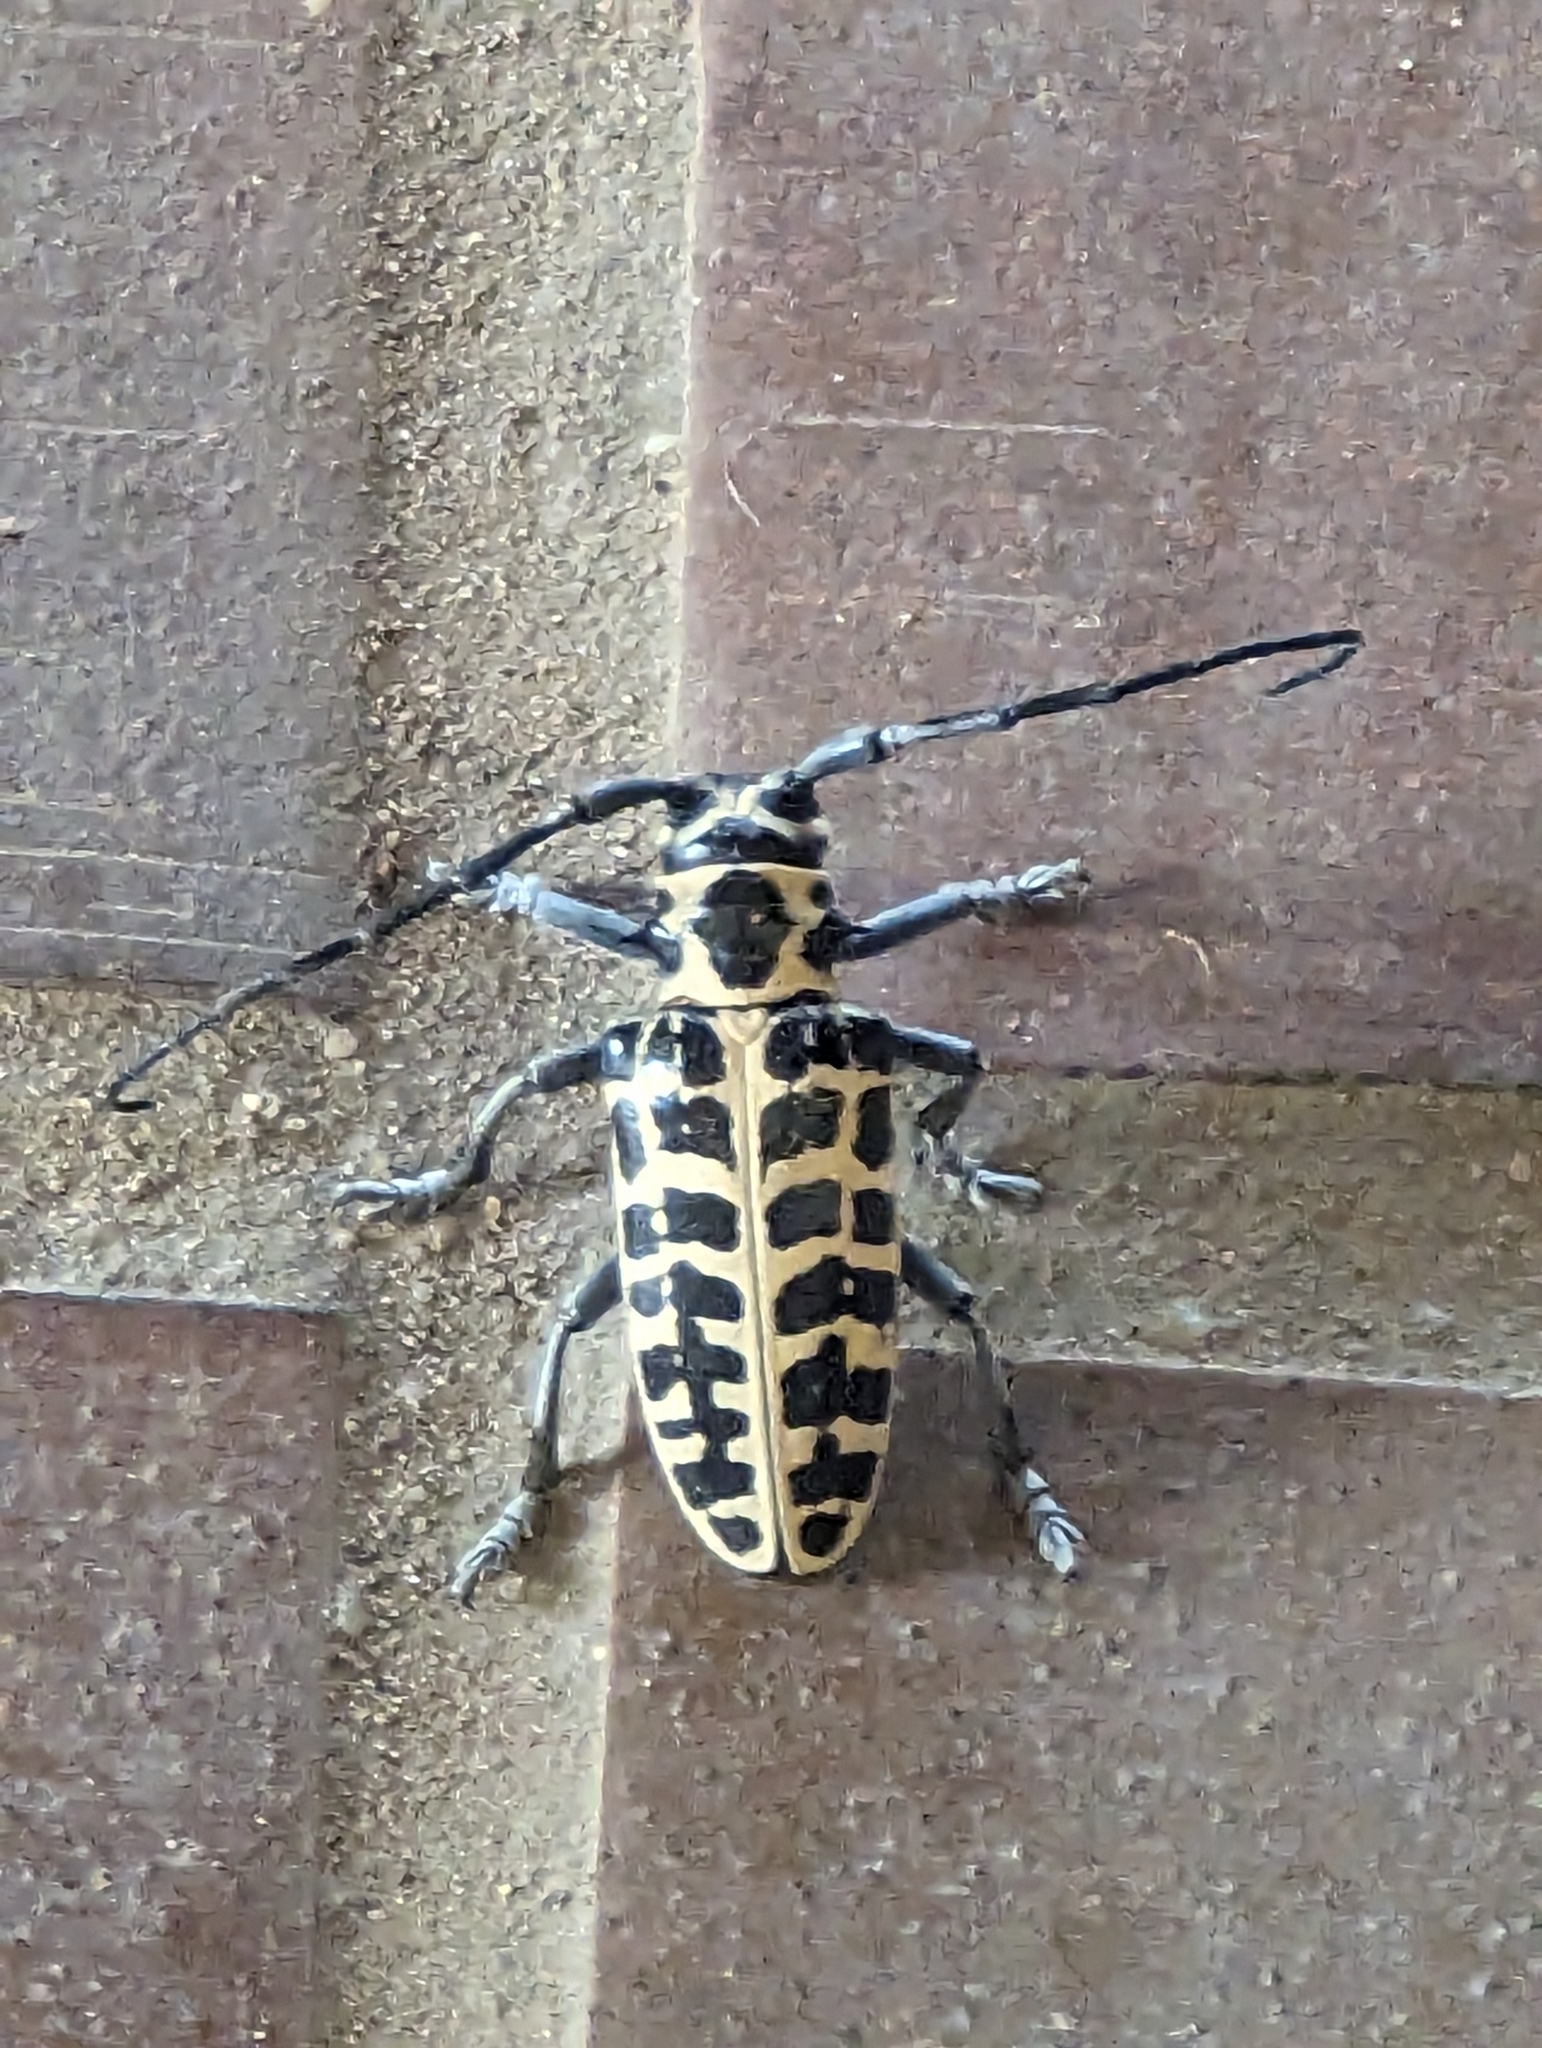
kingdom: Animalia
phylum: Arthropoda
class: Insecta
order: Coleoptera
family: Cerambycidae
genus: Plectrodera
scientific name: Plectrodera scalator
